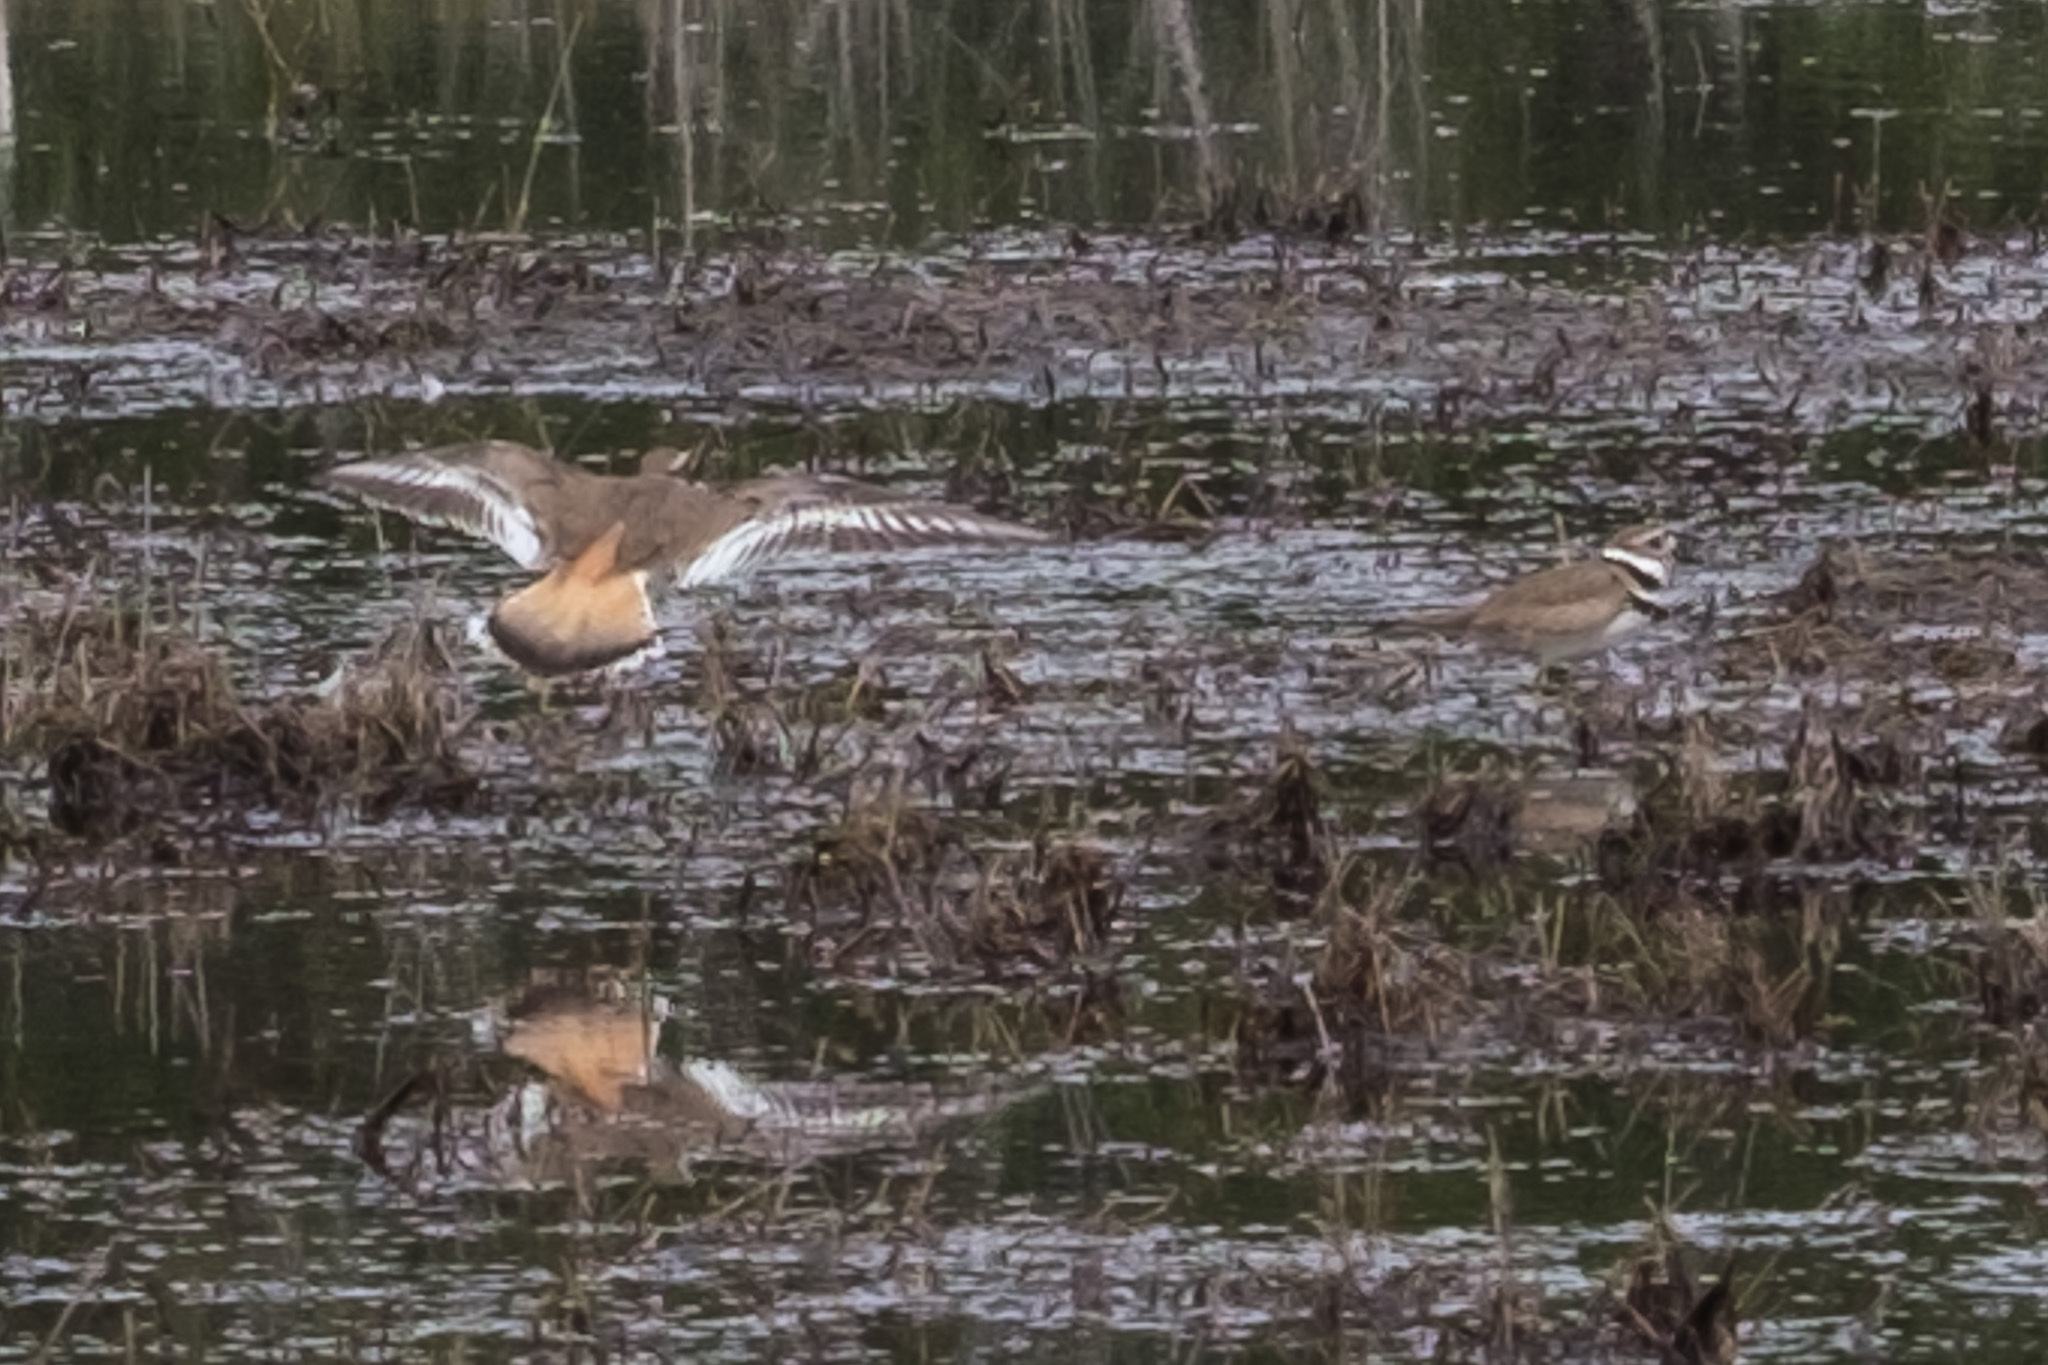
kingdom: Animalia
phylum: Chordata
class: Aves
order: Charadriiformes
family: Charadriidae
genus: Charadrius
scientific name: Charadrius vociferus
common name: Killdeer
